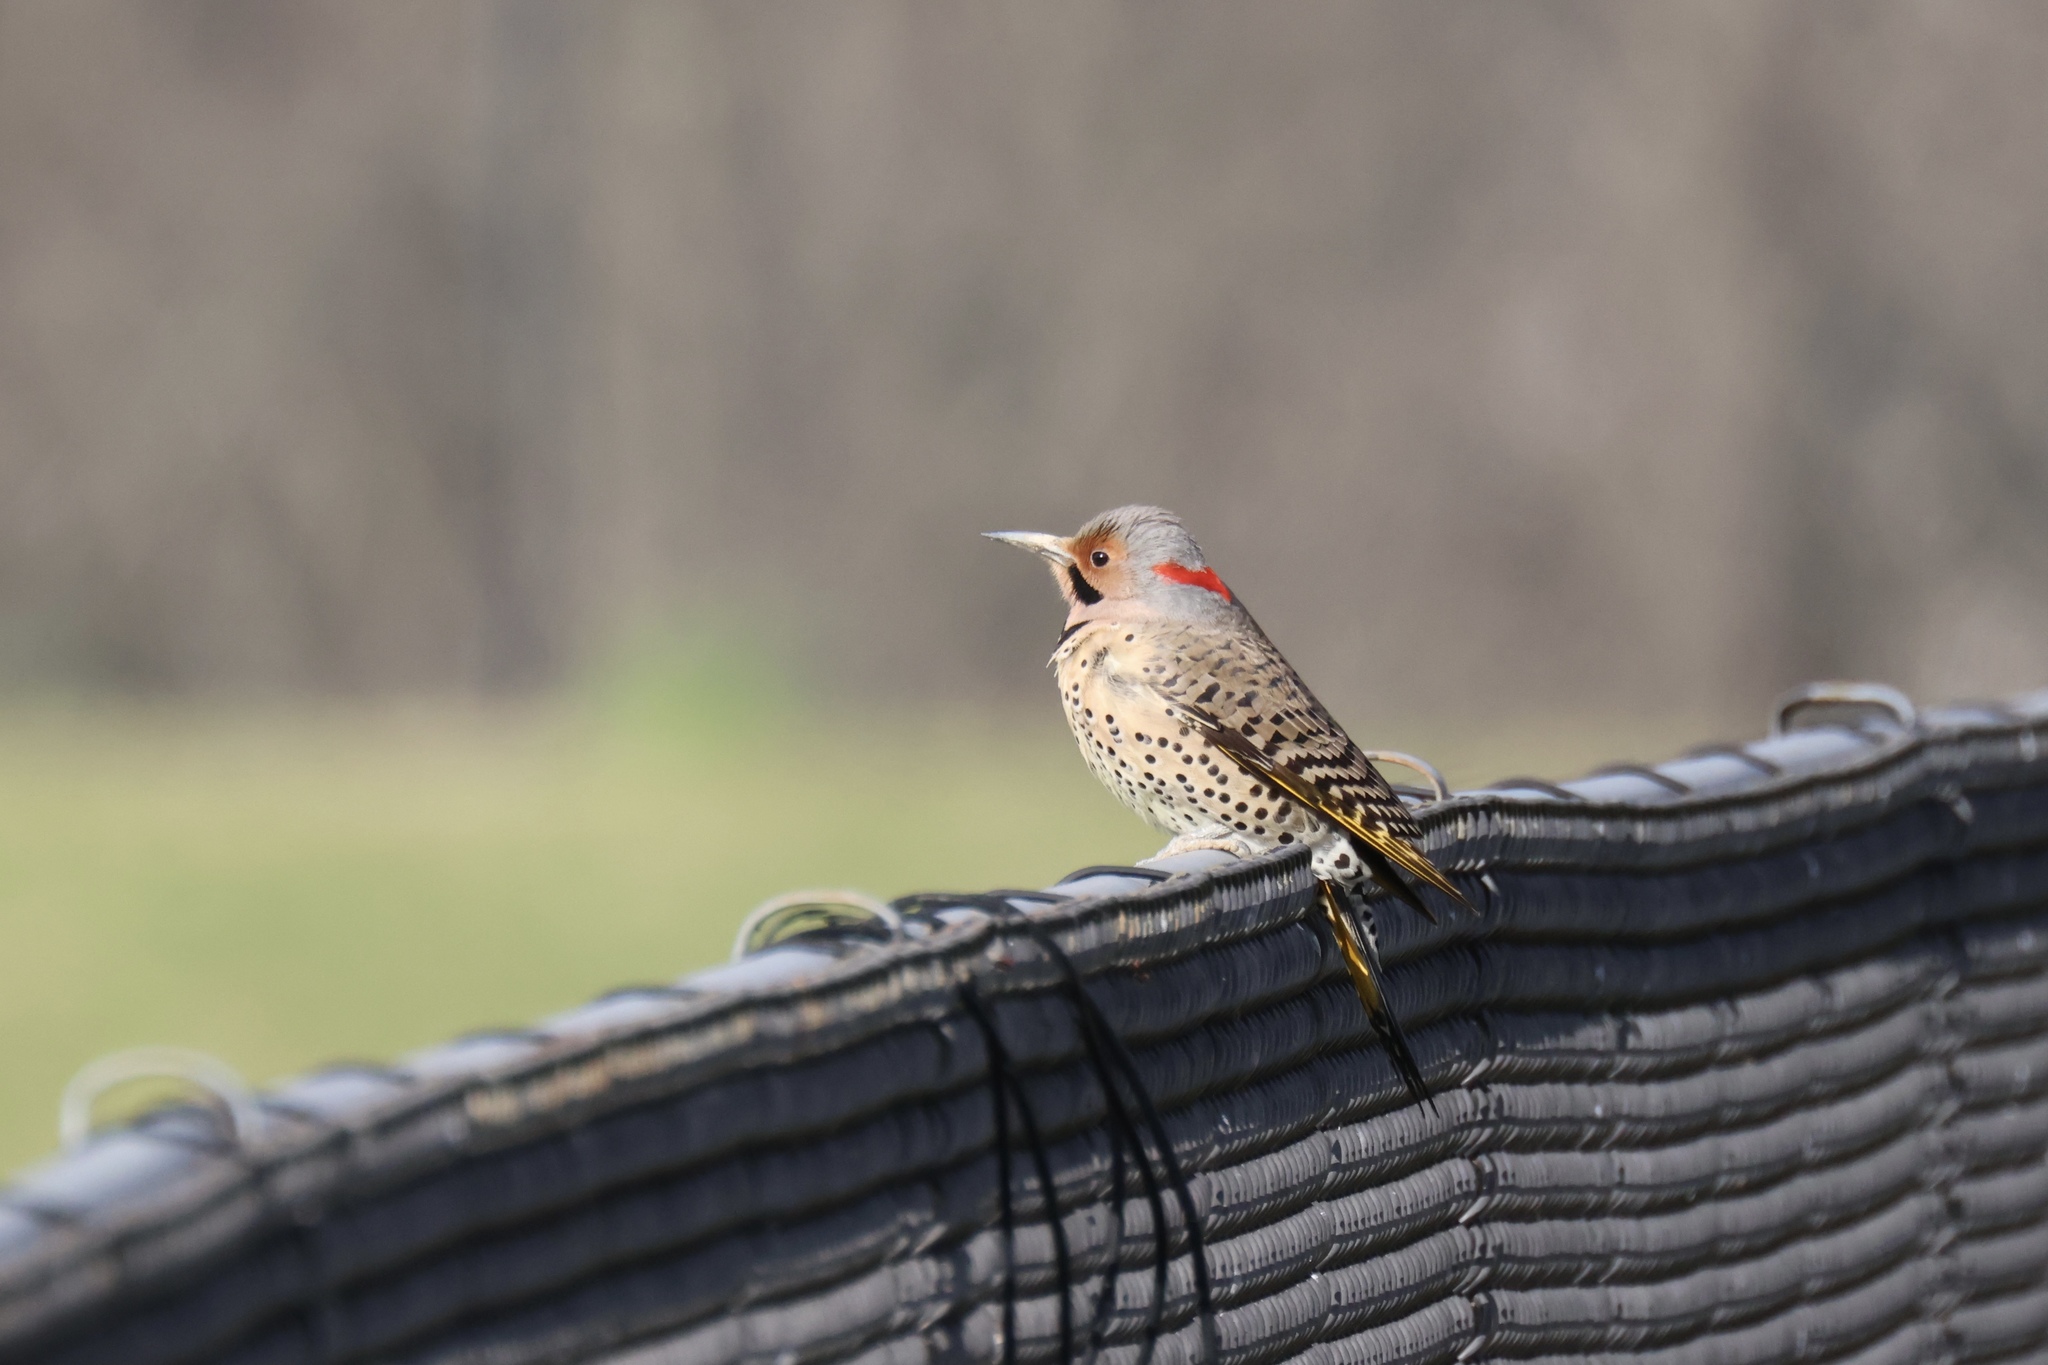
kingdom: Animalia
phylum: Chordata
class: Aves
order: Piciformes
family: Picidae
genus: Colaptes
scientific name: Colaptes auratus
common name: Northern flicker
